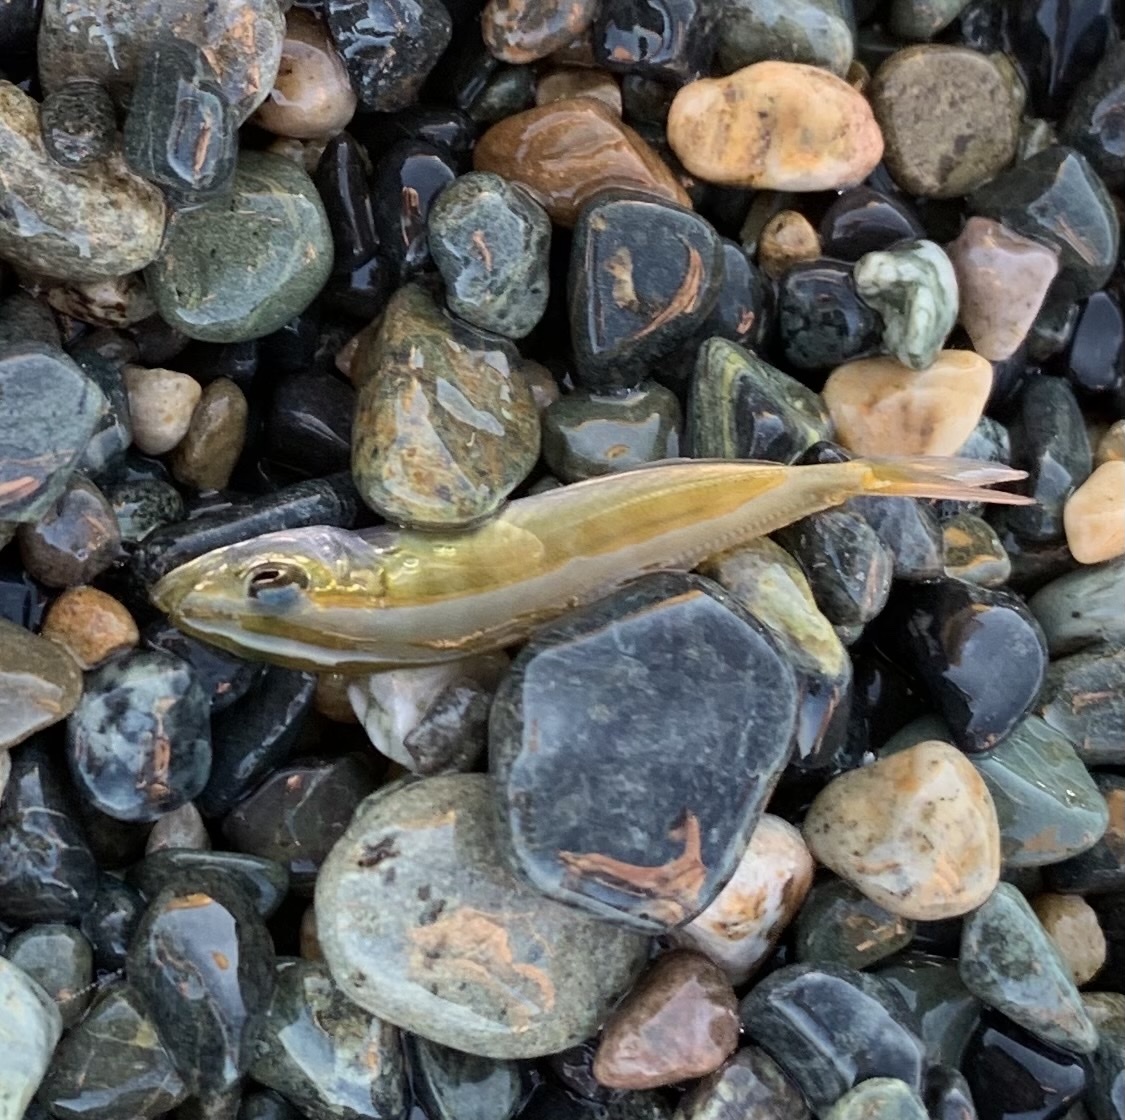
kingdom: Animalia
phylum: Chordata
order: Perciformes
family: Carangidae
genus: Trachurus
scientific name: Trachurus
